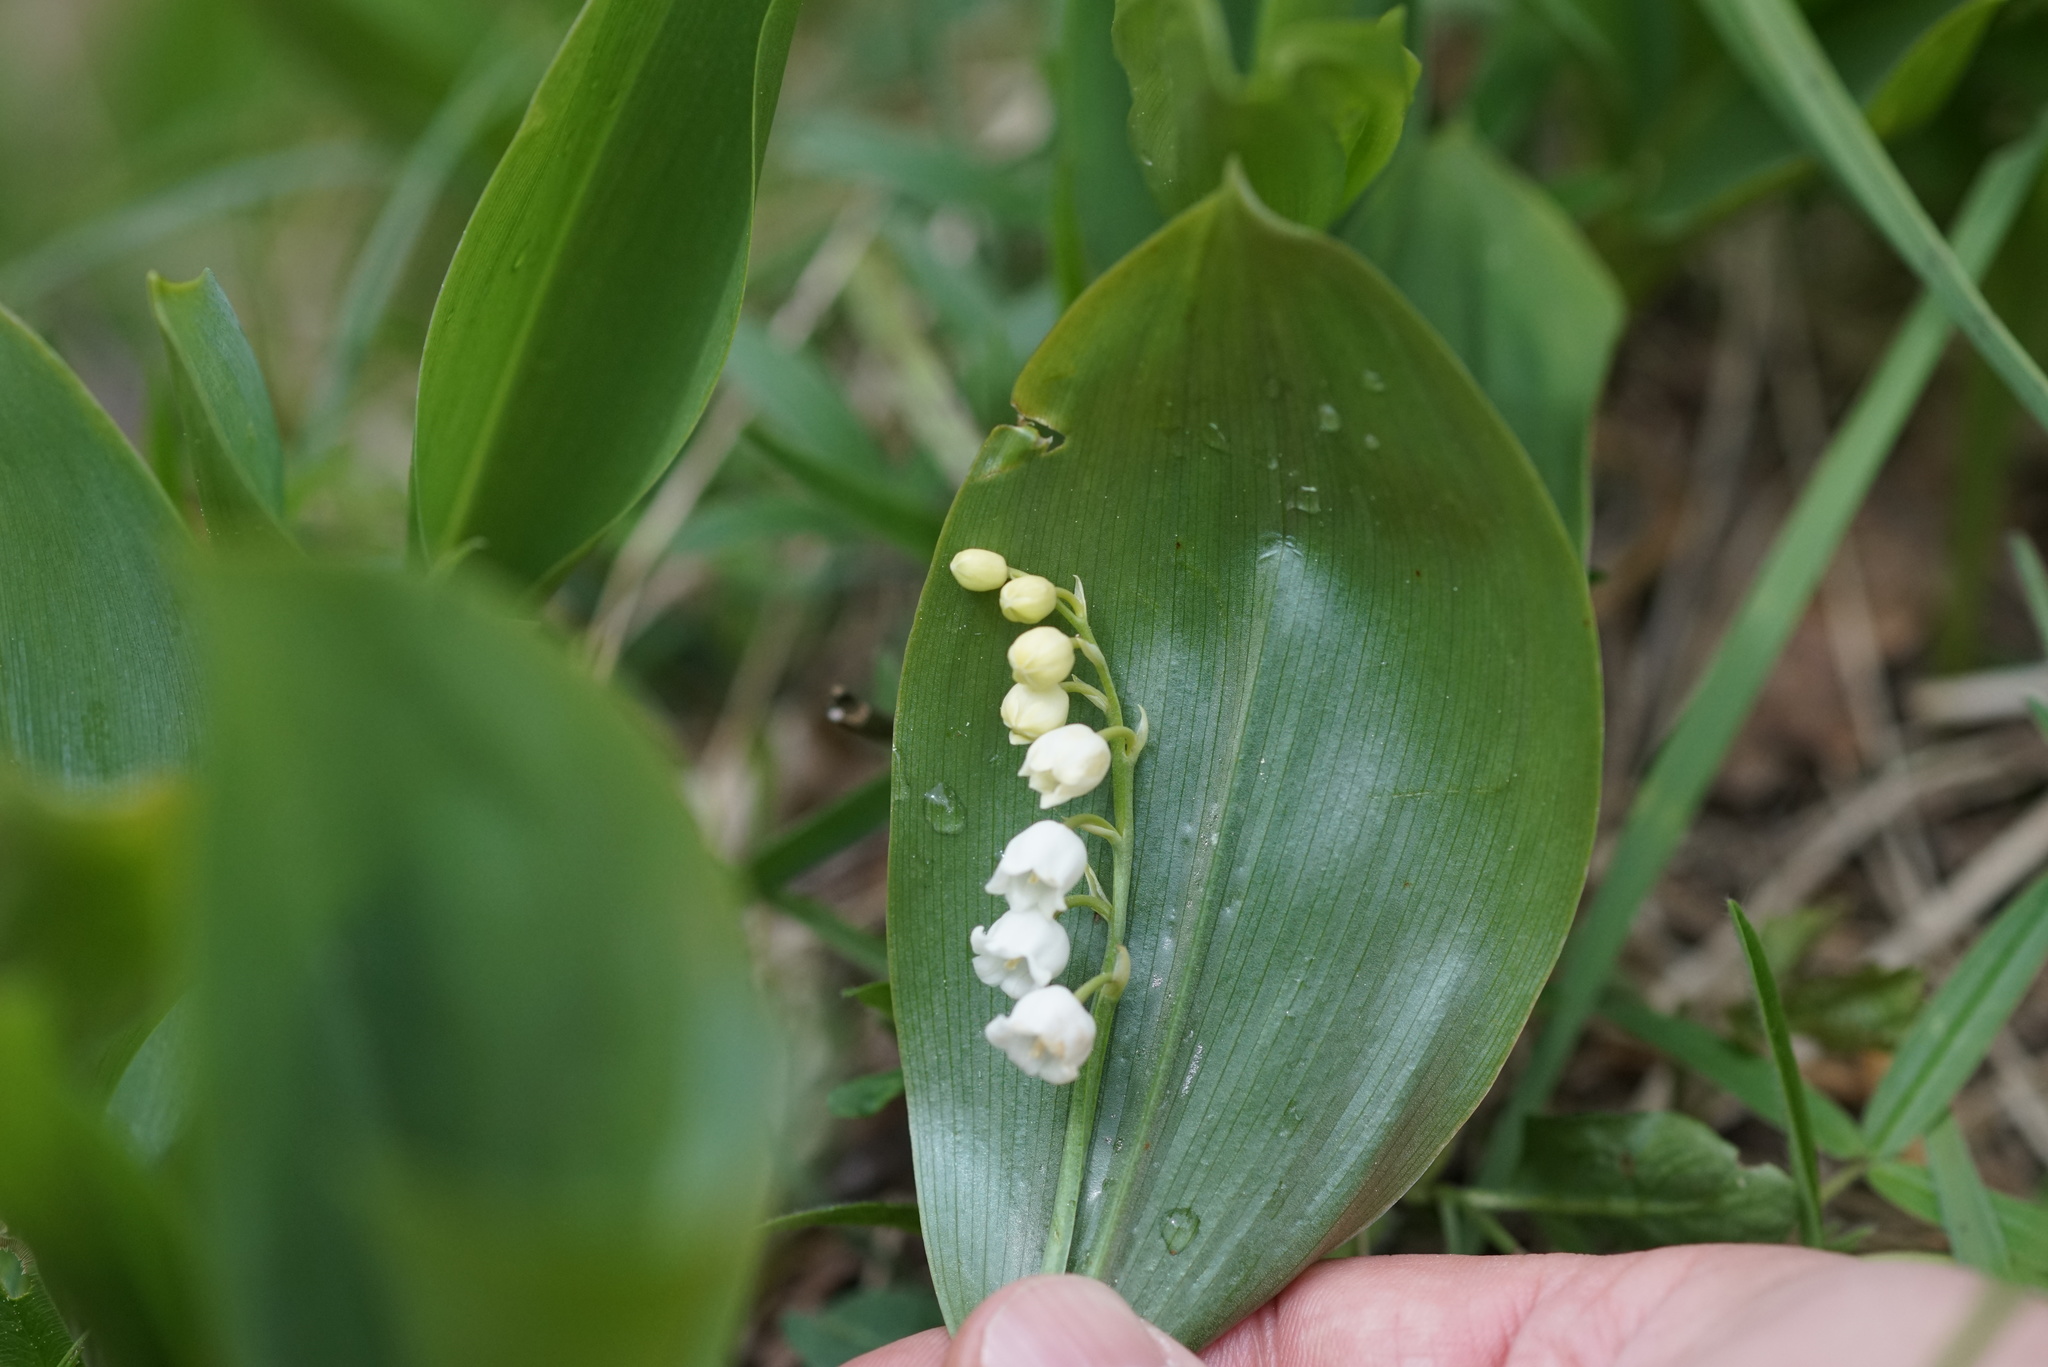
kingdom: Plantae
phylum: Tracheophyta
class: Liliopsida
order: Asparagales
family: Asparagaceae
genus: Convallaria
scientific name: Convallaria majalis
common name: Lily-of-the-valley
